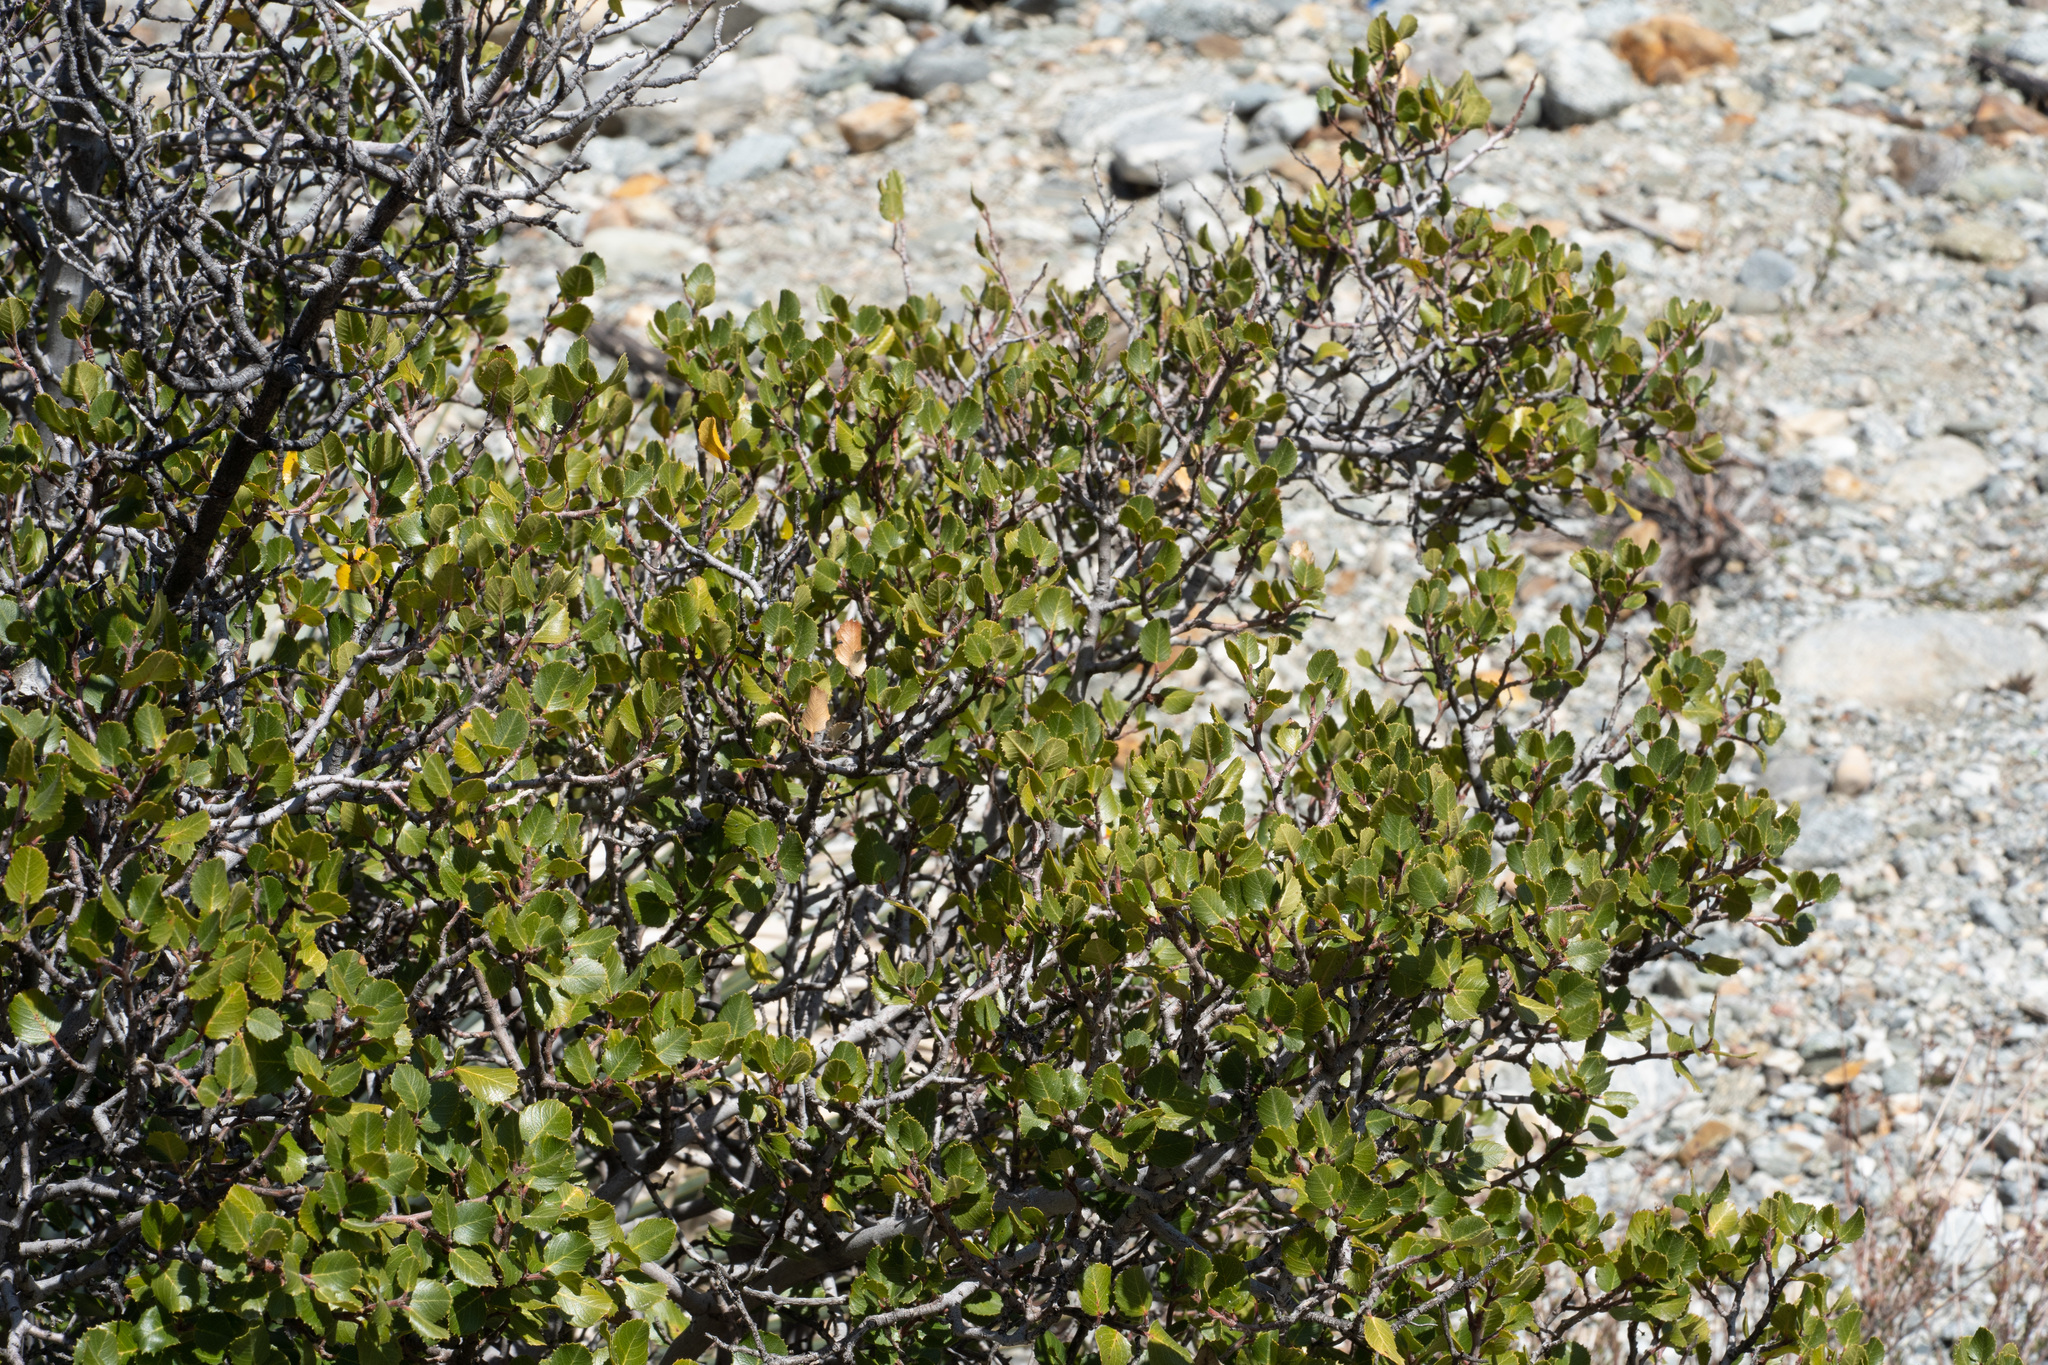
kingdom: Plantae
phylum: Tracheophyta
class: Magnoliopsida
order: Rosales
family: Rhamnaceae
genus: Endotropis
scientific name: Endotropis crocea
